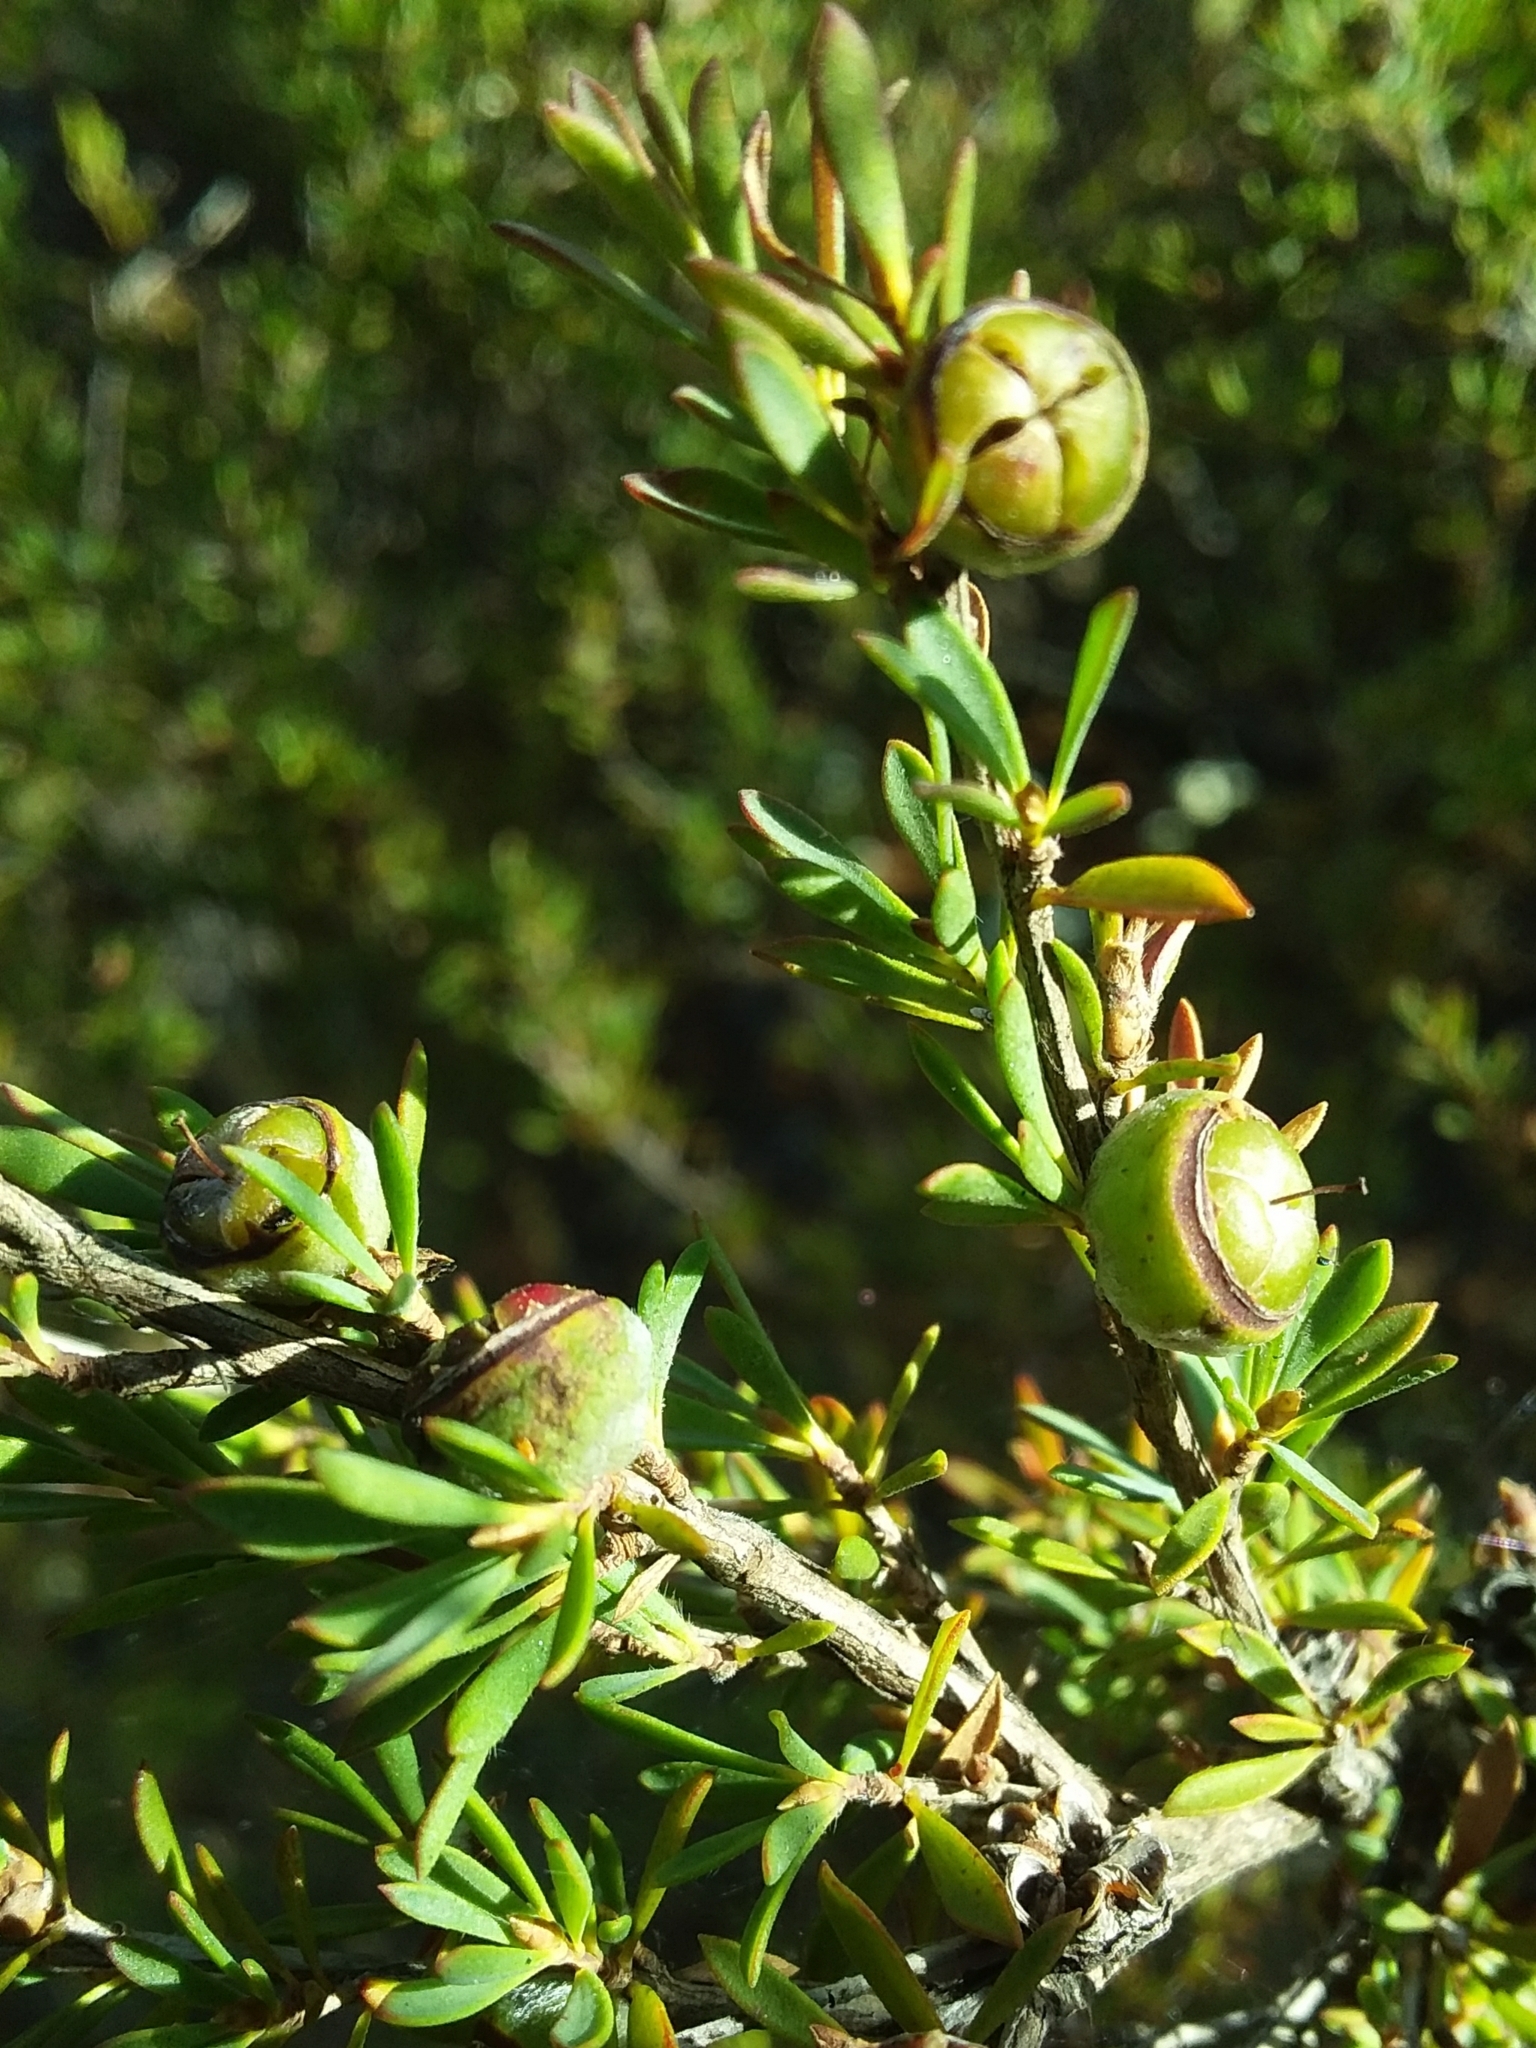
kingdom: Plantae
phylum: Tracheophyta
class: Magnoliopsida
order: Myrtales
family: Myrtaceae
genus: Leptospermum
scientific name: Leptospermum myrsinoides
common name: Heath teatree
